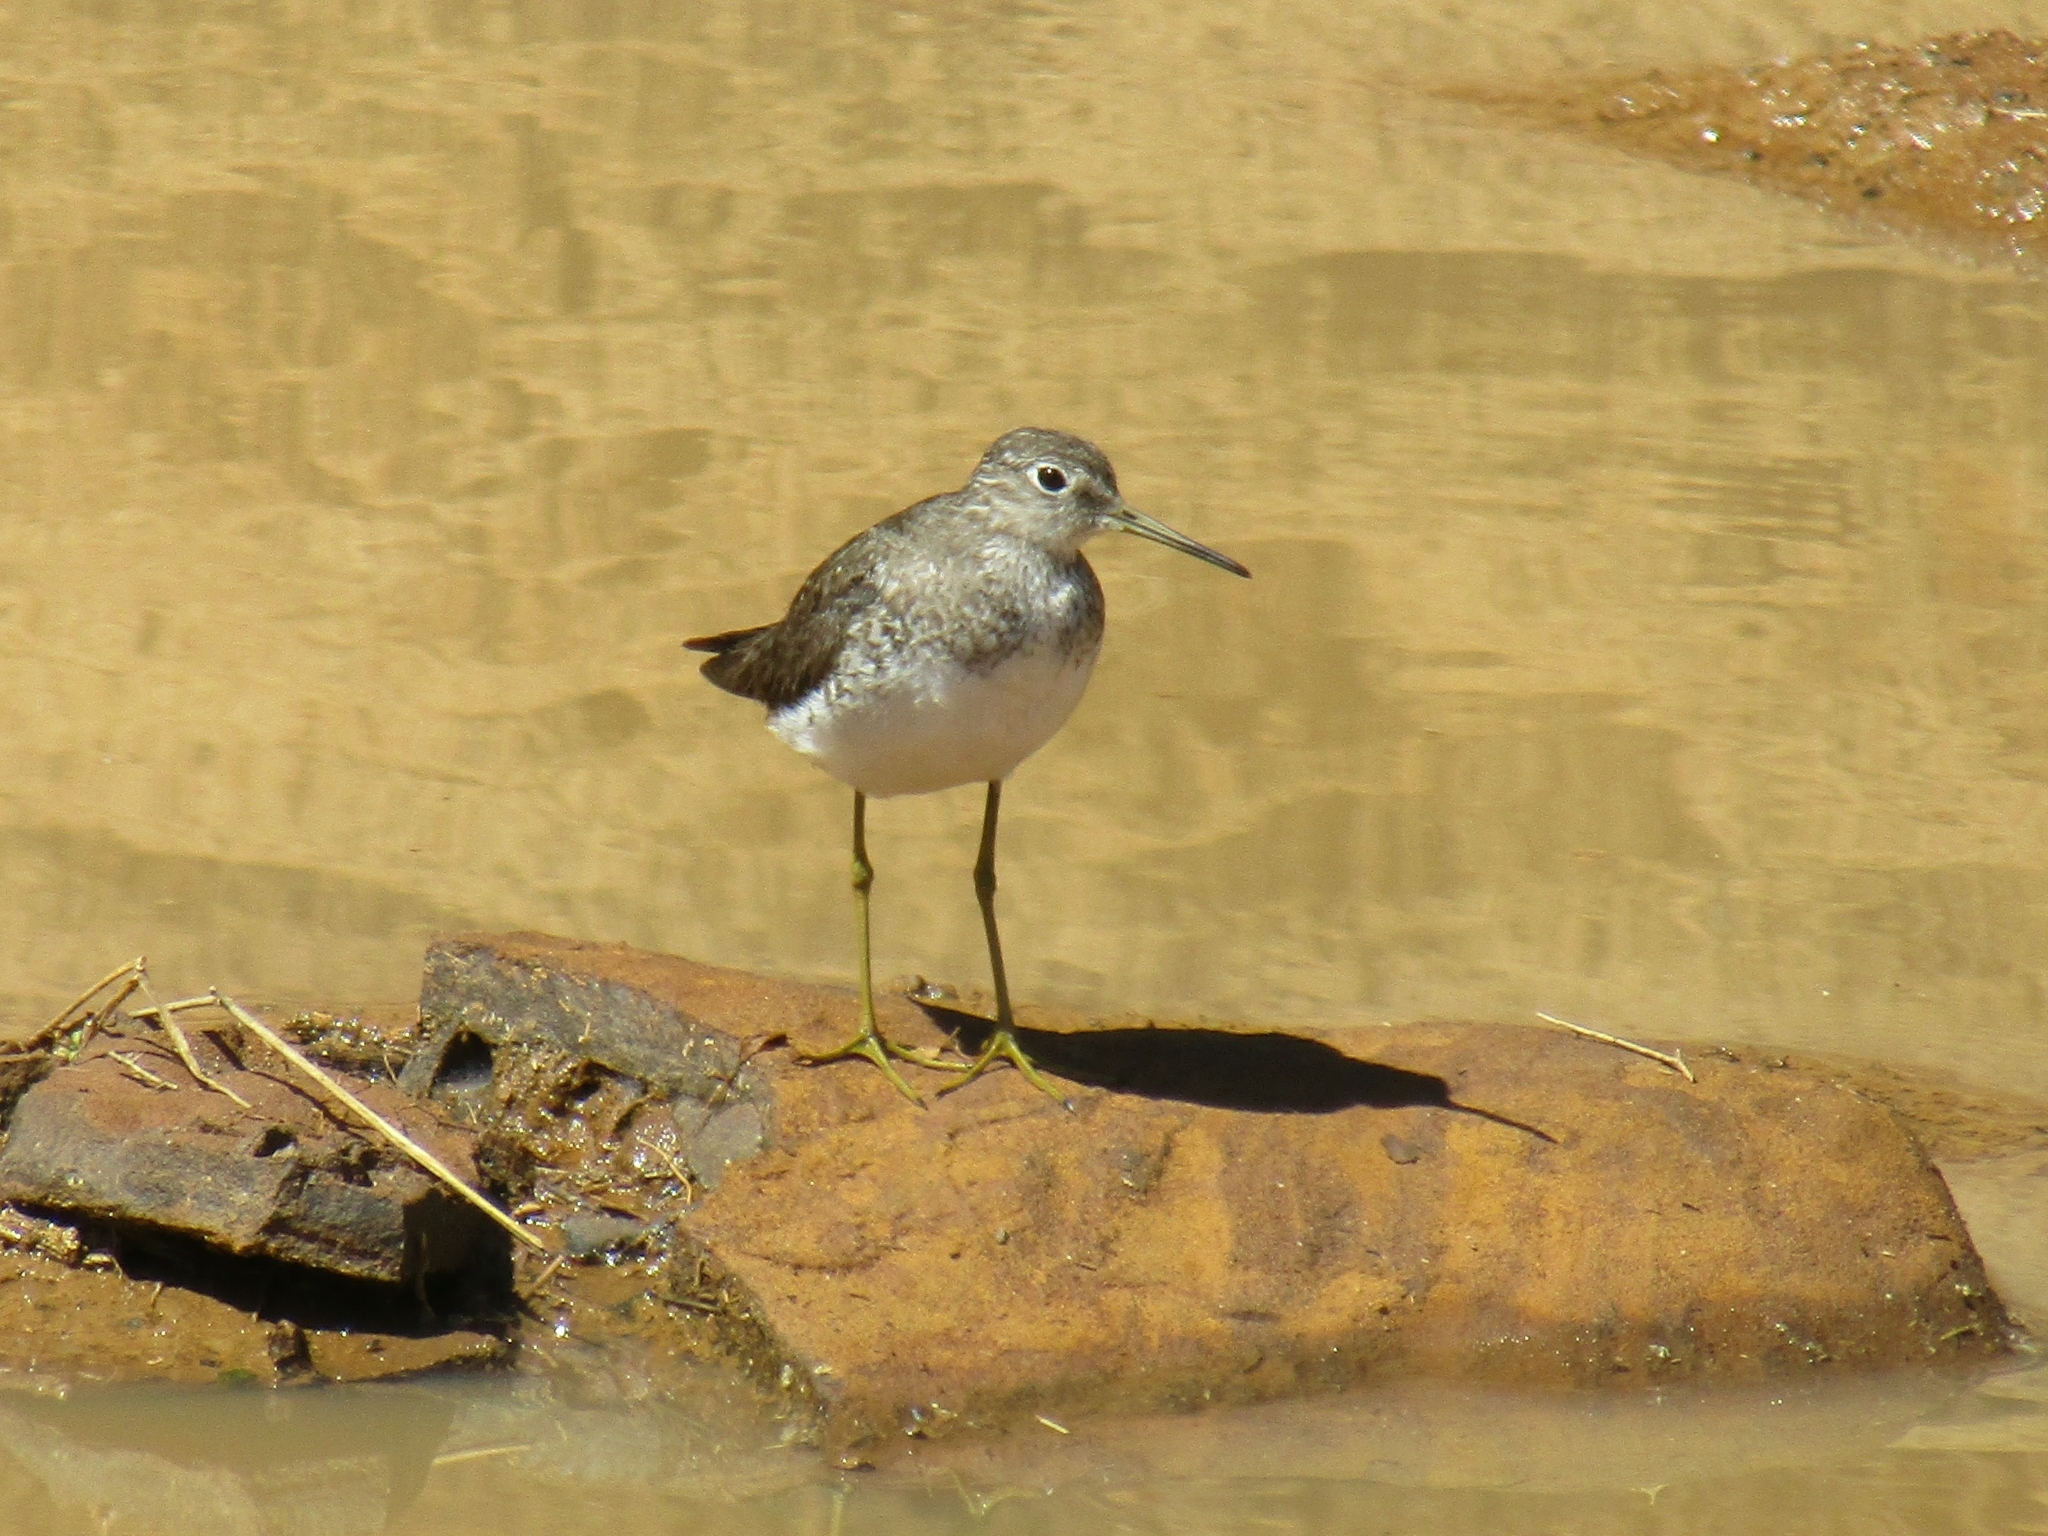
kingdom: Animalia
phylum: Chordata
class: Aves
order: Charadriiformes
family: Scolopacidae
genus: Tringa
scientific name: Tringa solitaria
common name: Solitary sandpiper
